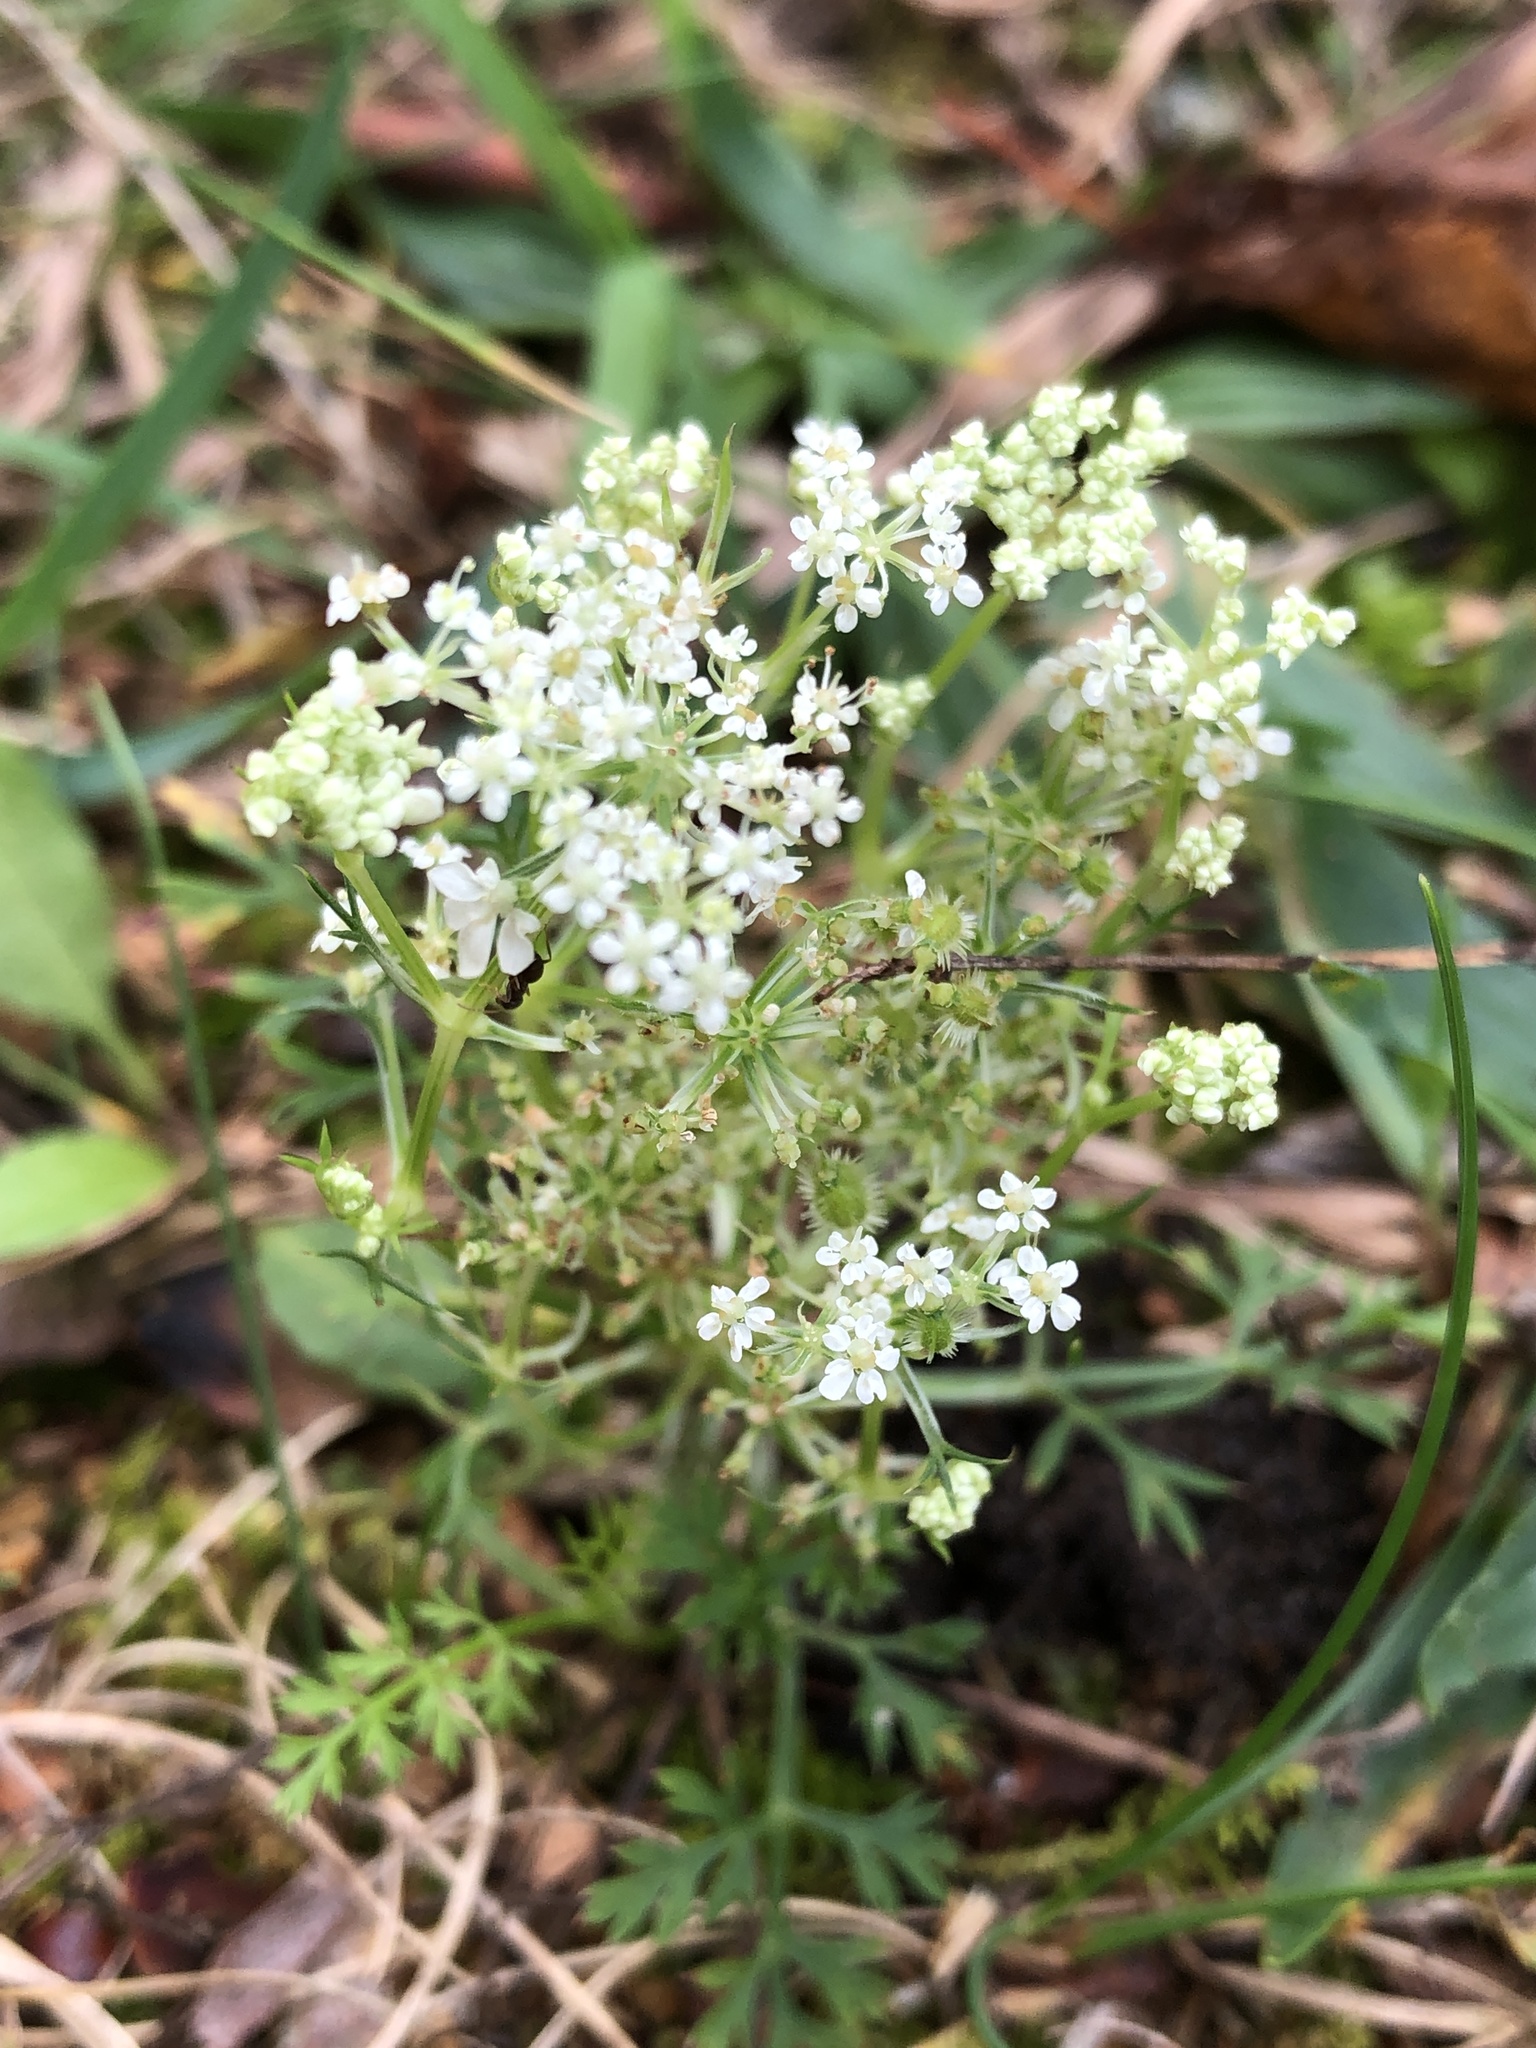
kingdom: Plantae
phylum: Tracheophyta
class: Magnoliopsida
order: Apiales
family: Apiaceae
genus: Daucus
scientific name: Daucus carota
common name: Wild carrot
